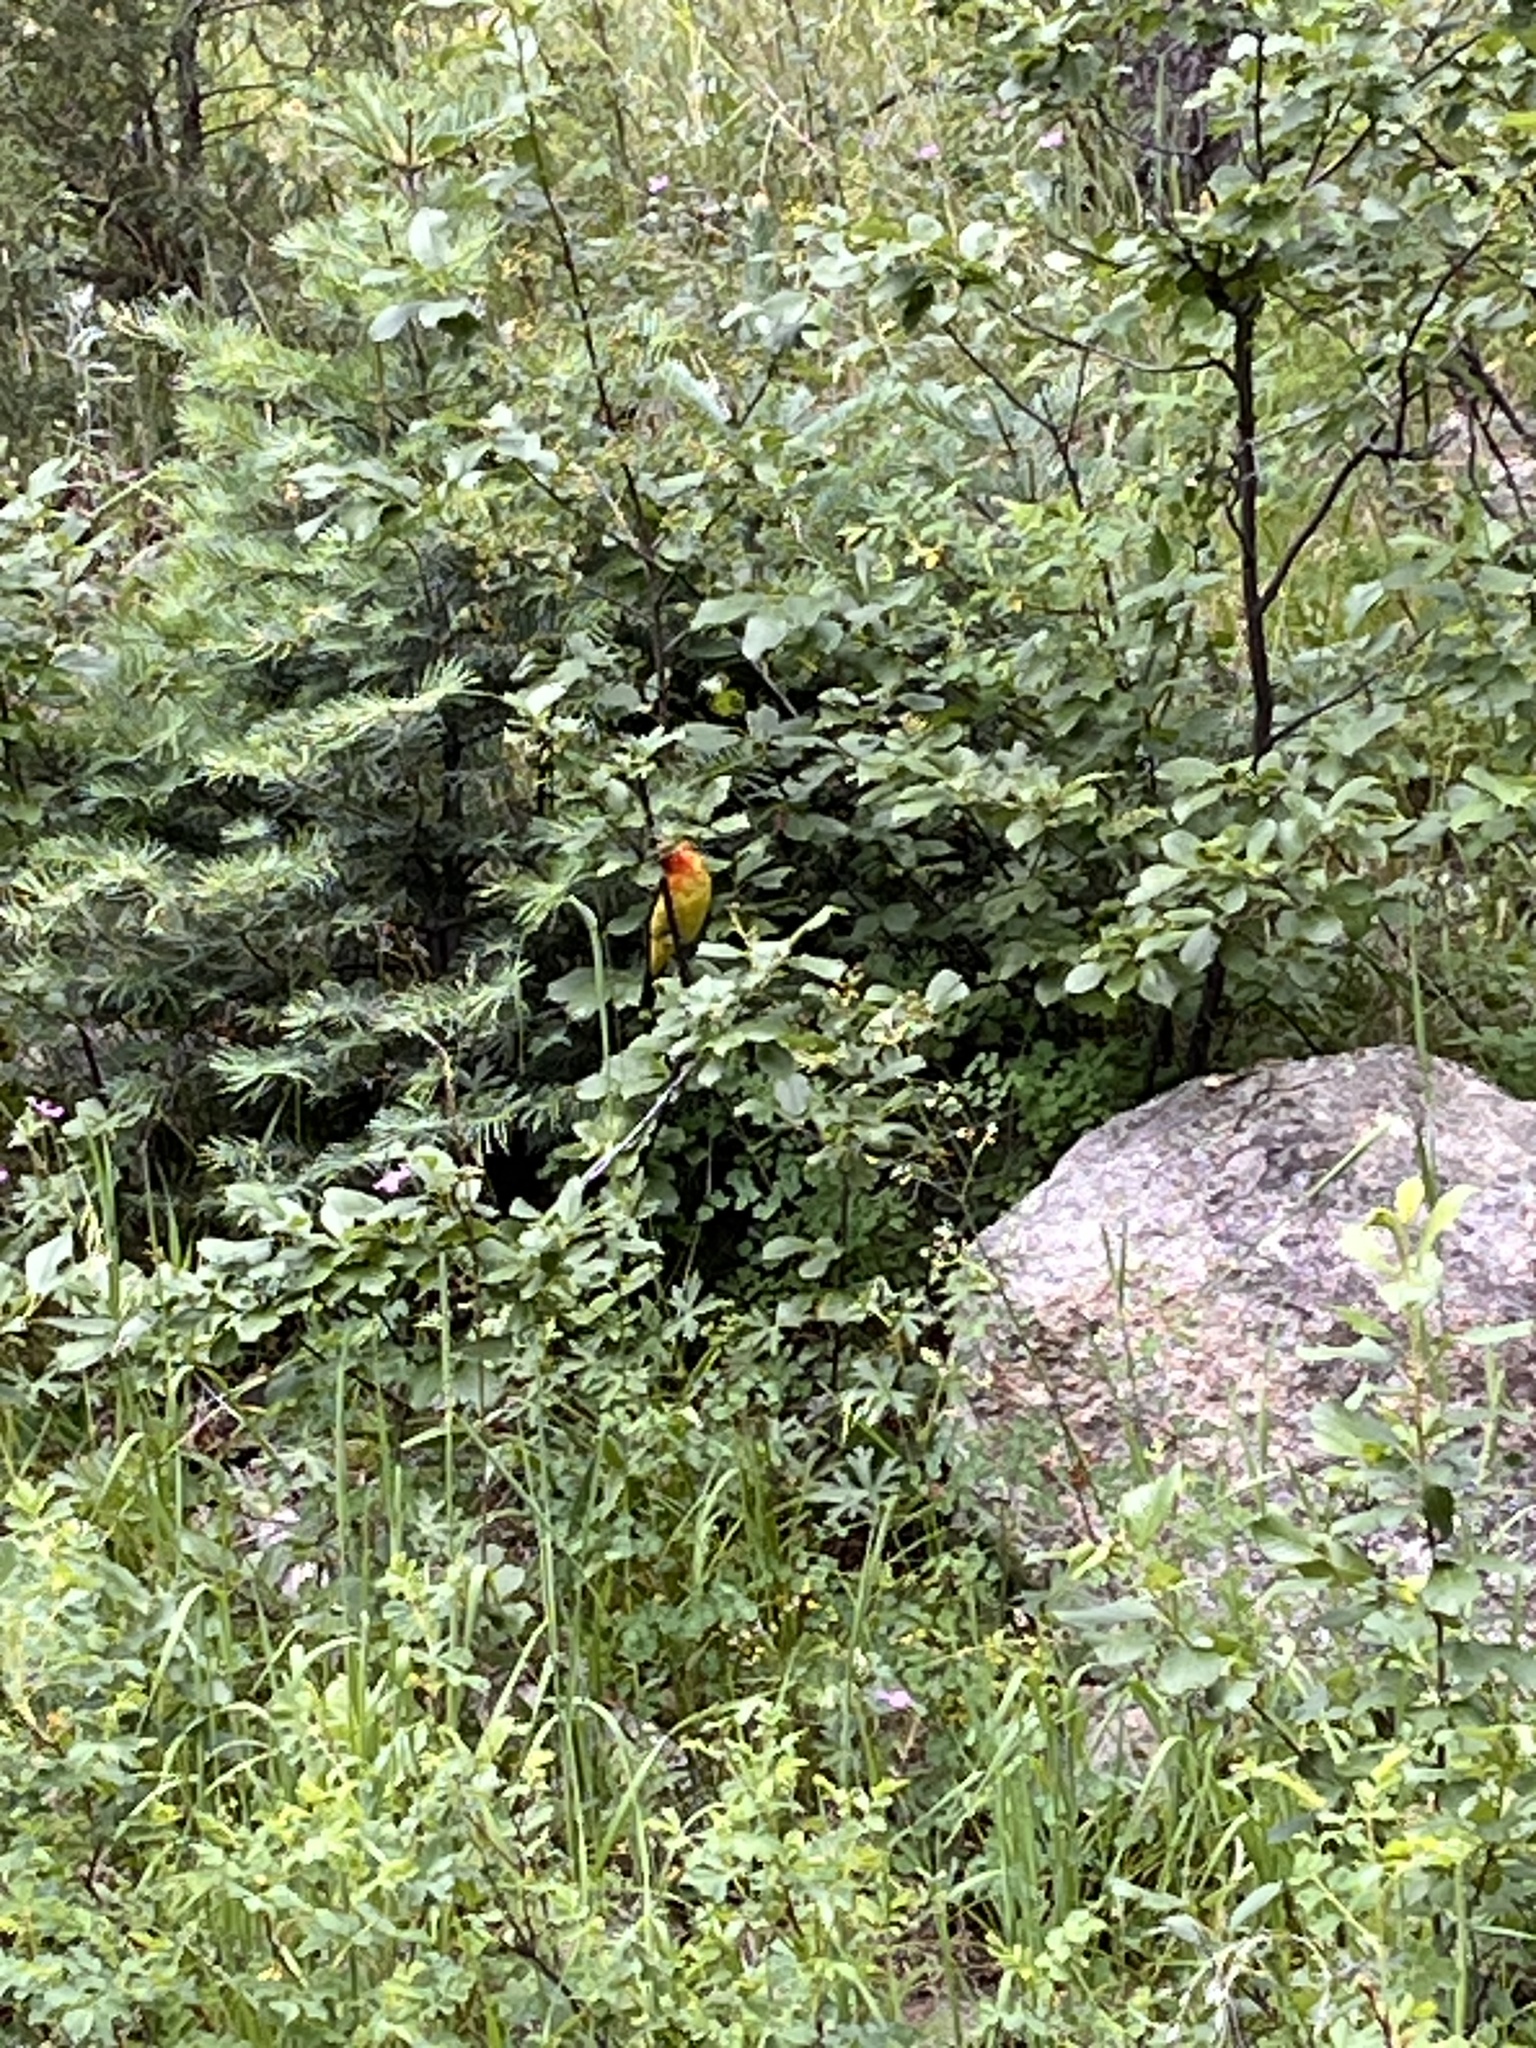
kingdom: Animalia
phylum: Chordata
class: Aves
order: Passeriformes
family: Cardinalidae
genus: Piranga
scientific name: Piranga ludoviciana
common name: Western tanager
